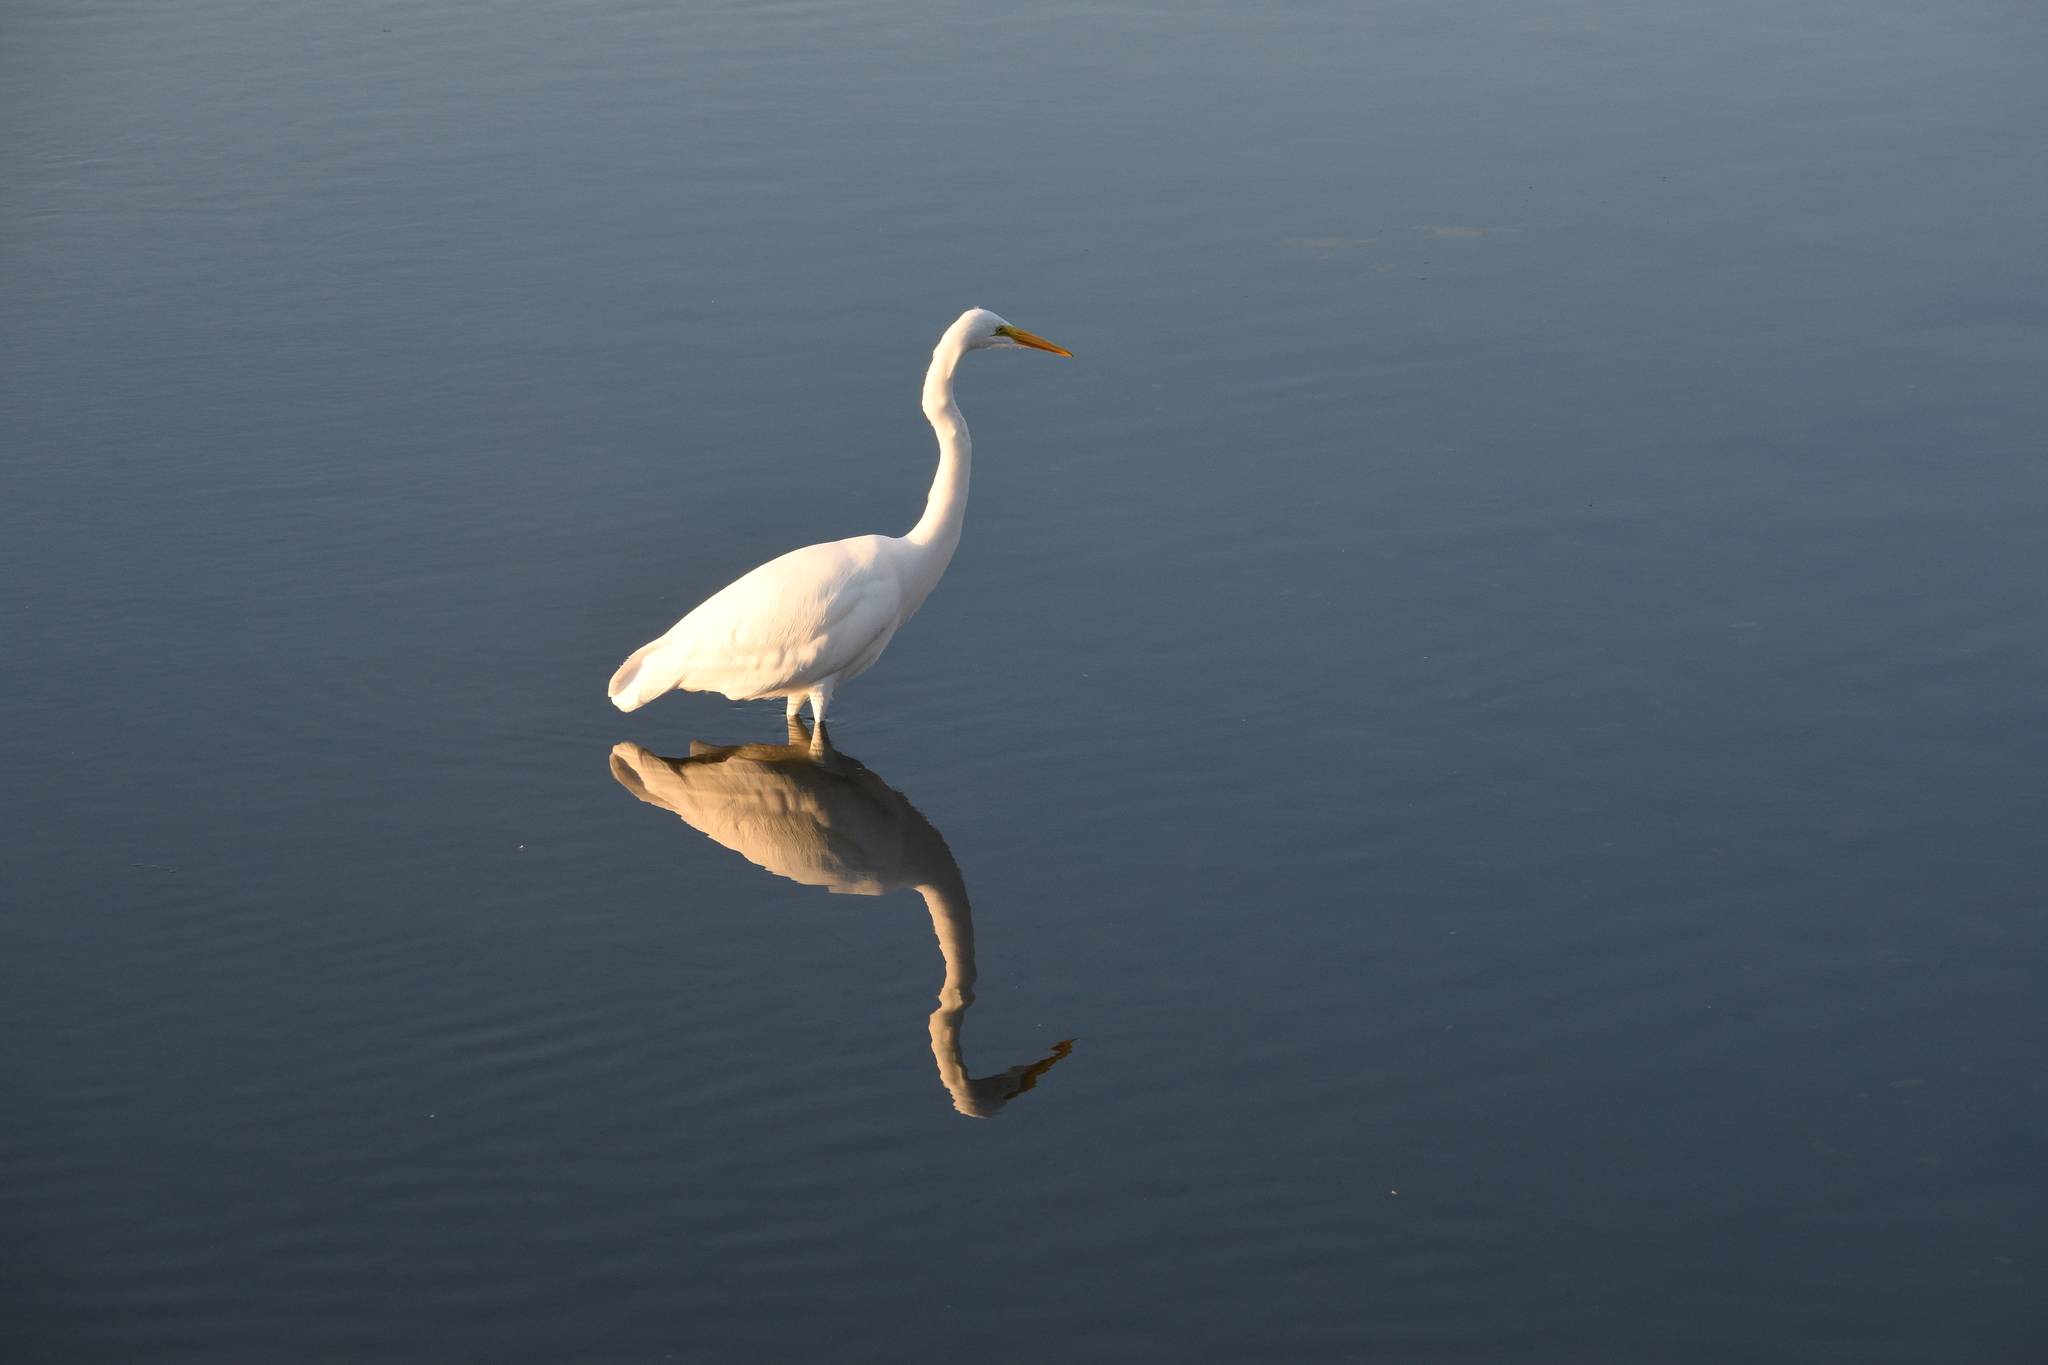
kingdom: Animalia
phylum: Chordata
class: Aves
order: Pelecaniformes
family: Ardeidae
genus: Ardea
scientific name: Ardea alba
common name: Great egret
